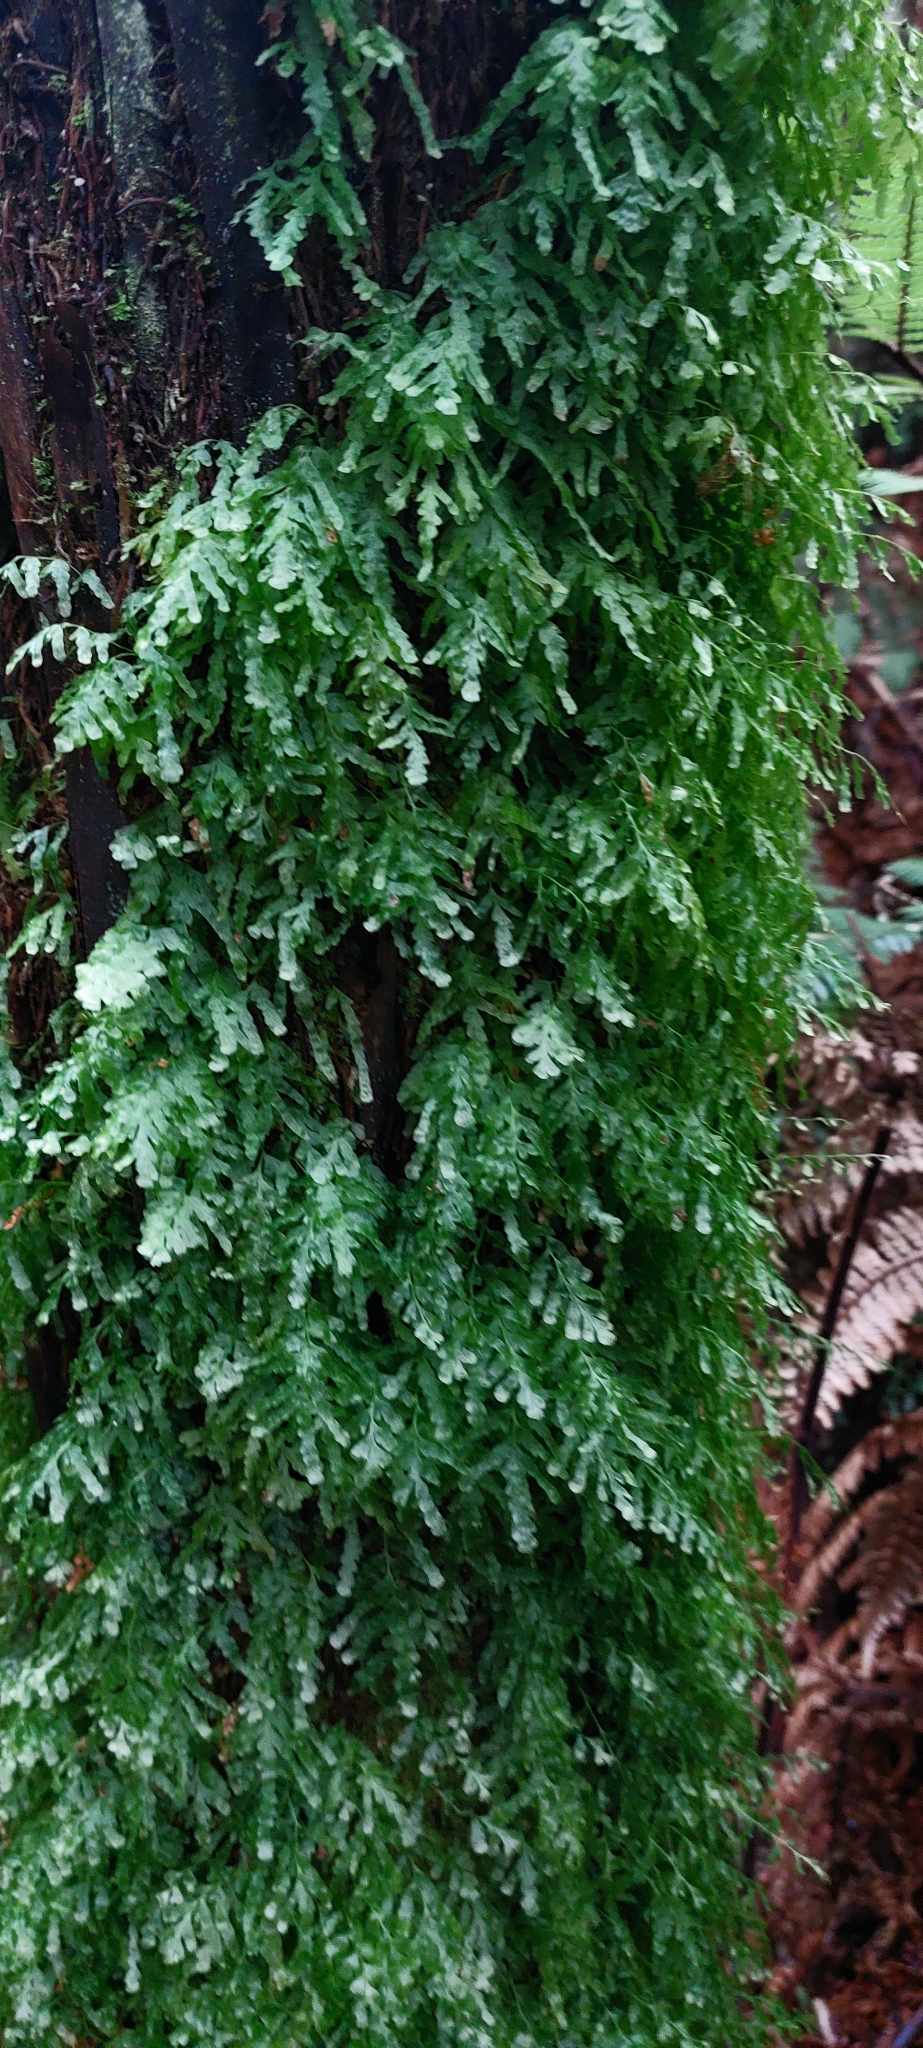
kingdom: Plantae
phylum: Tracheophyta
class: Polypodiopsida
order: Hymenophyllales
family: Hymenophyllaceae
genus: Polyphlebium
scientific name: Polyphlebium venosum
